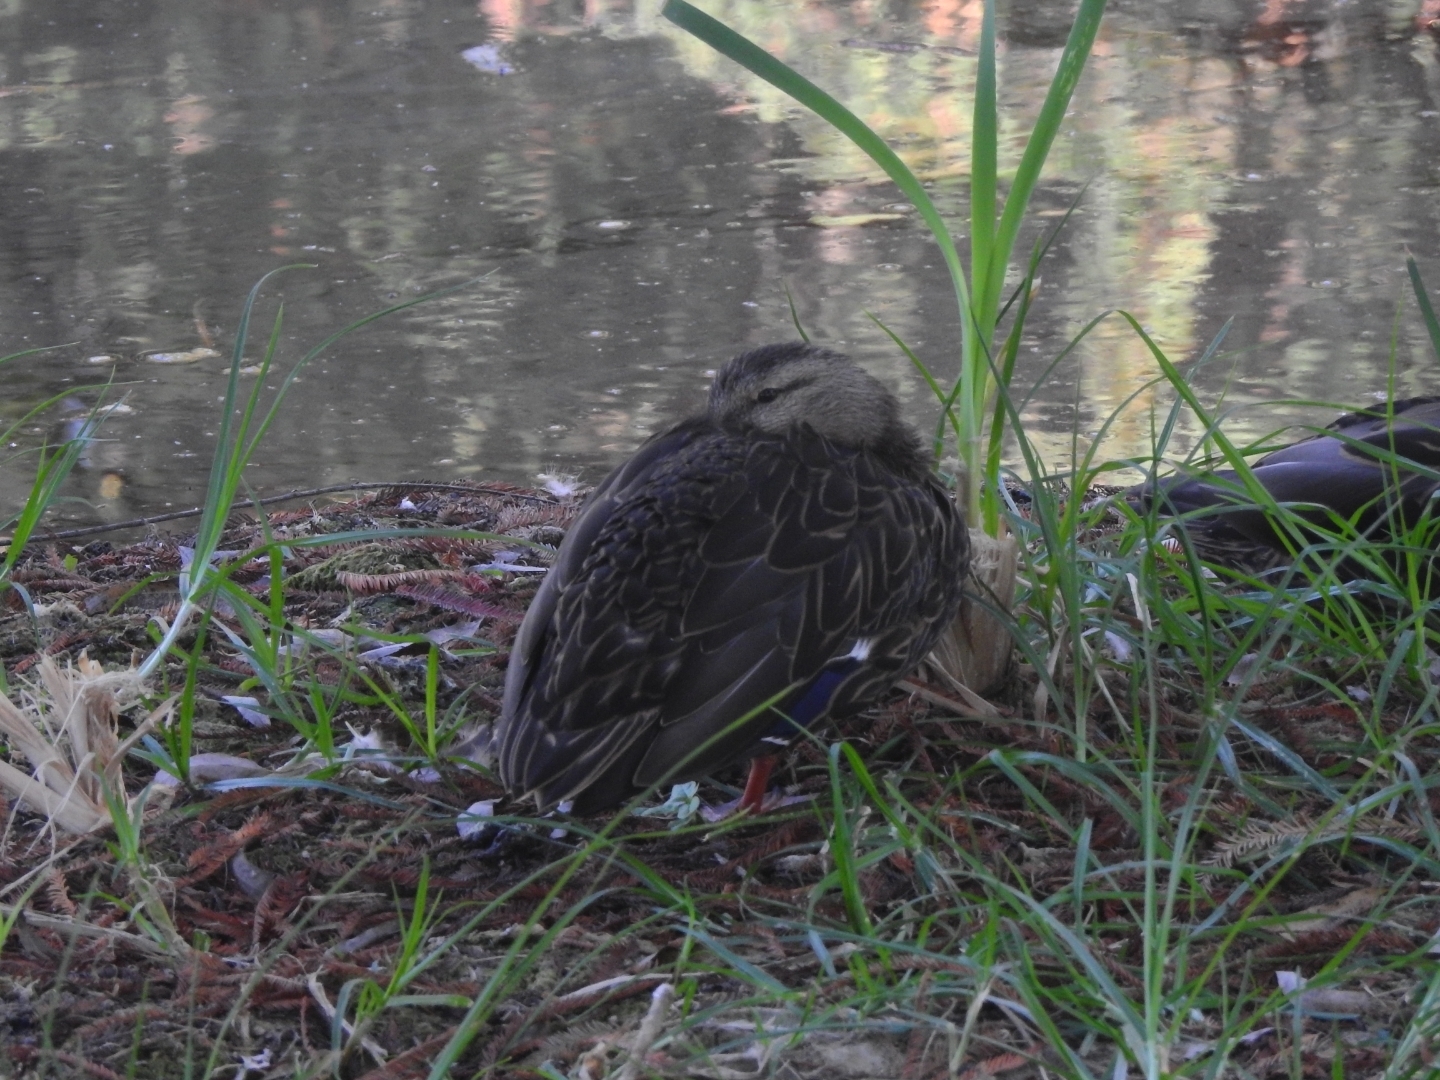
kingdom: Animalia
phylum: Chordata
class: Aves
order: Anseriformes
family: Anatidae
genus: Anas
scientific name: Anas diazi
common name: Mexican duck
